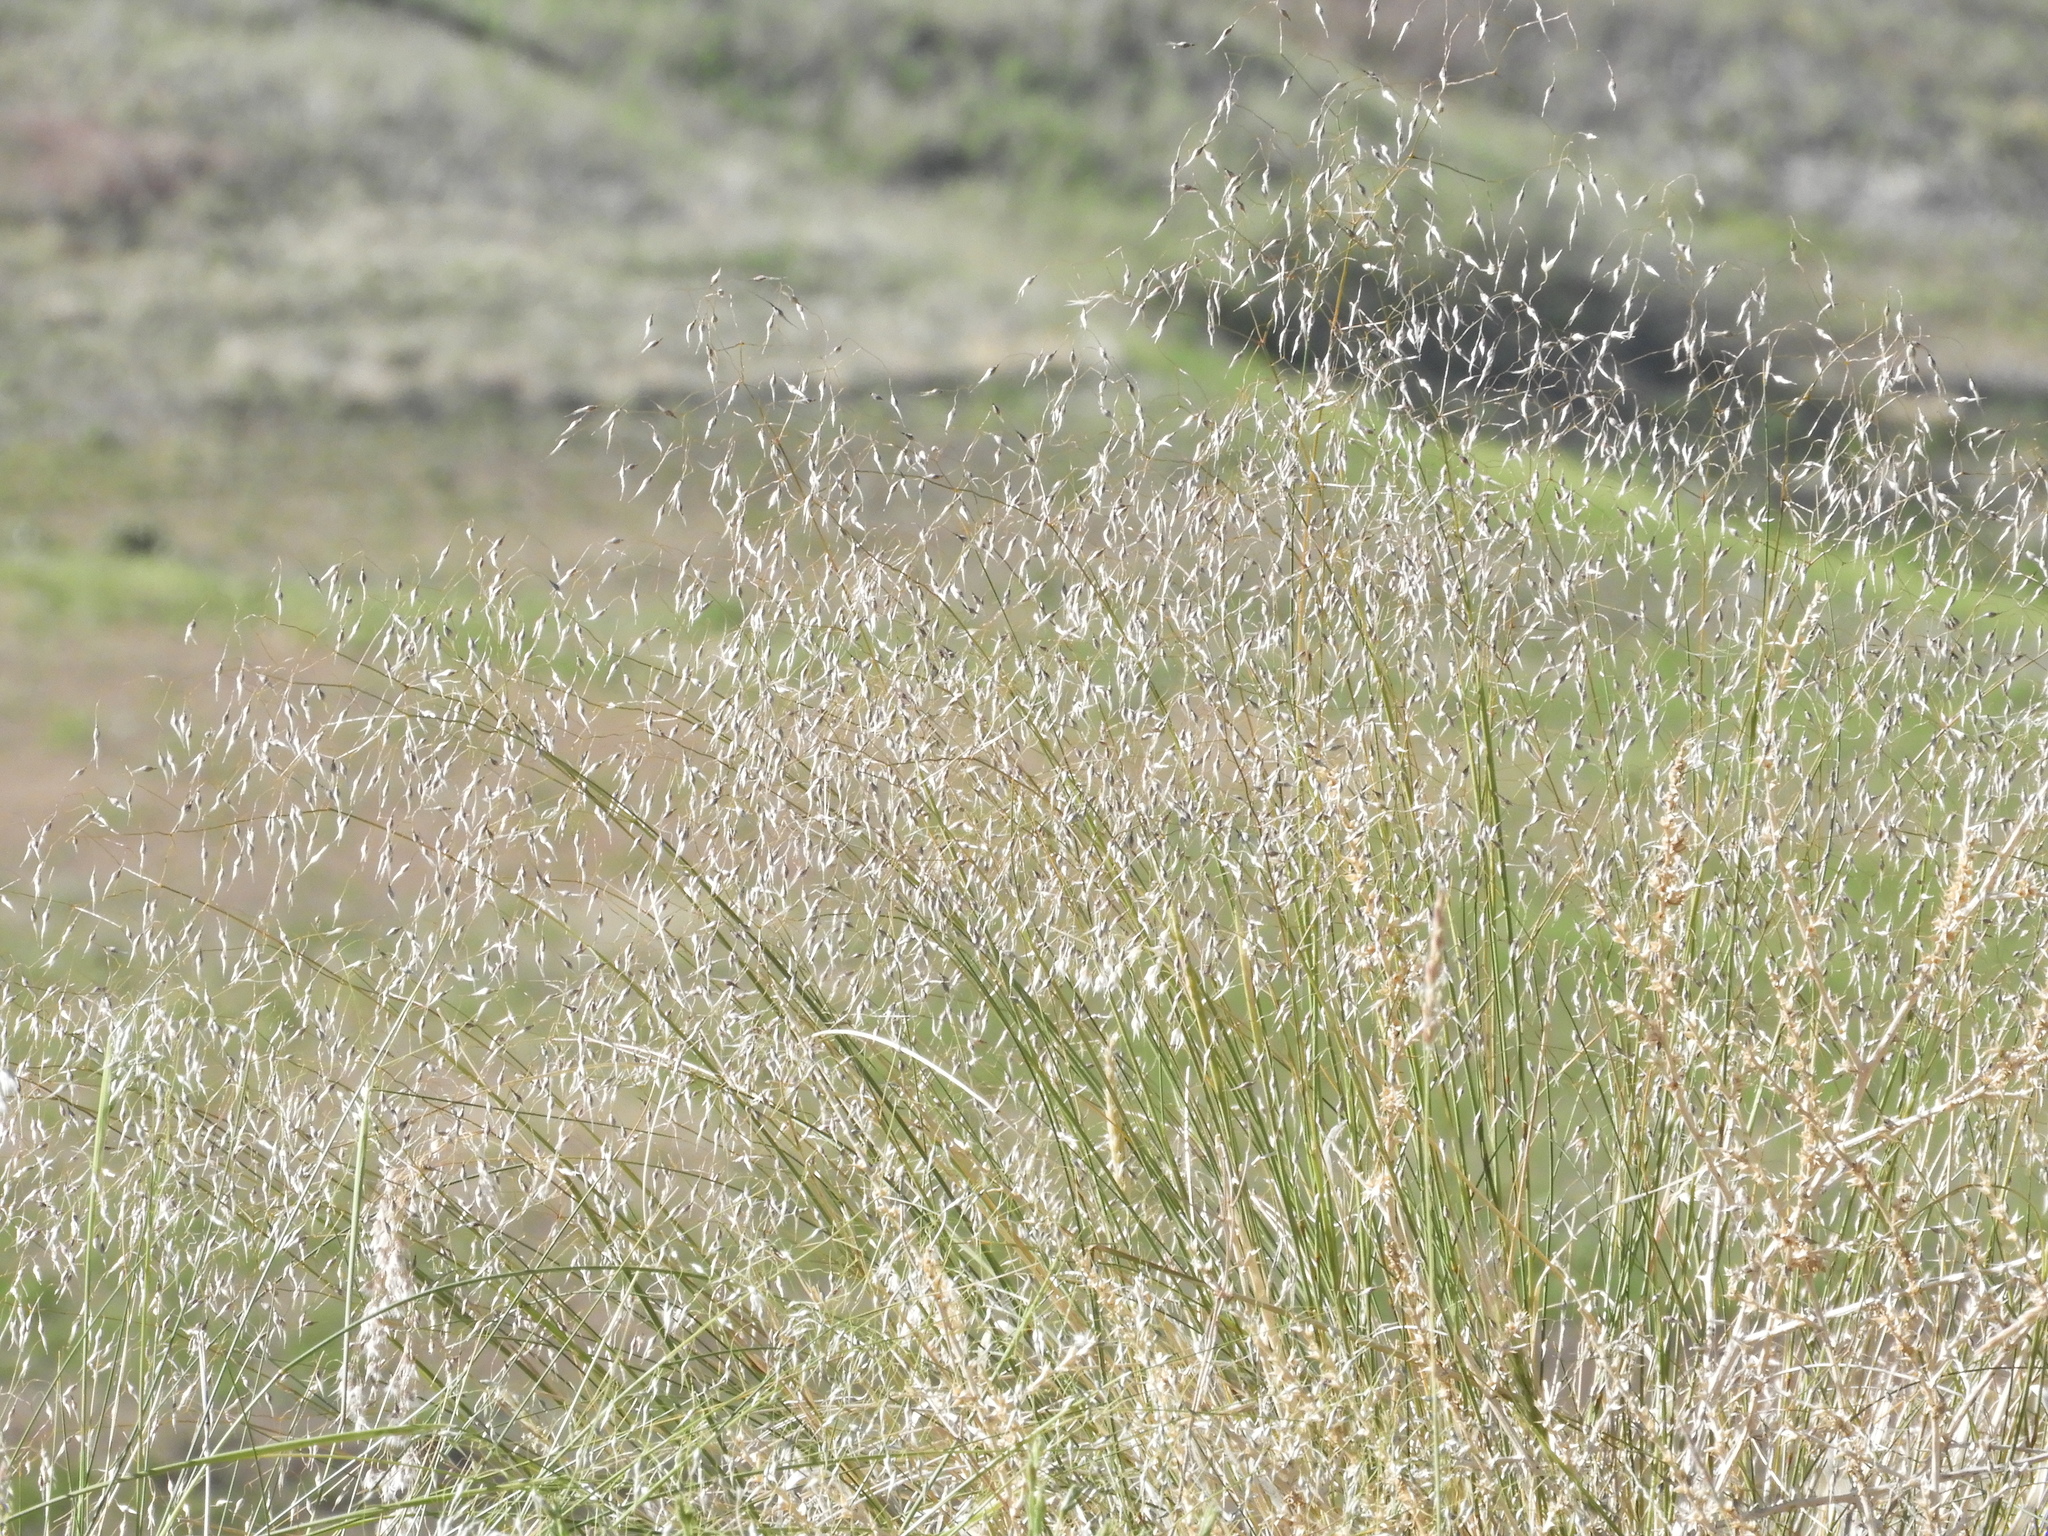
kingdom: Plantae
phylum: Tracheophyta
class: Liliopsida
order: Poales
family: Poaceae
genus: Eriocoma
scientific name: Eriocoma hymenoides
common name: Indian mountain ricegrass
